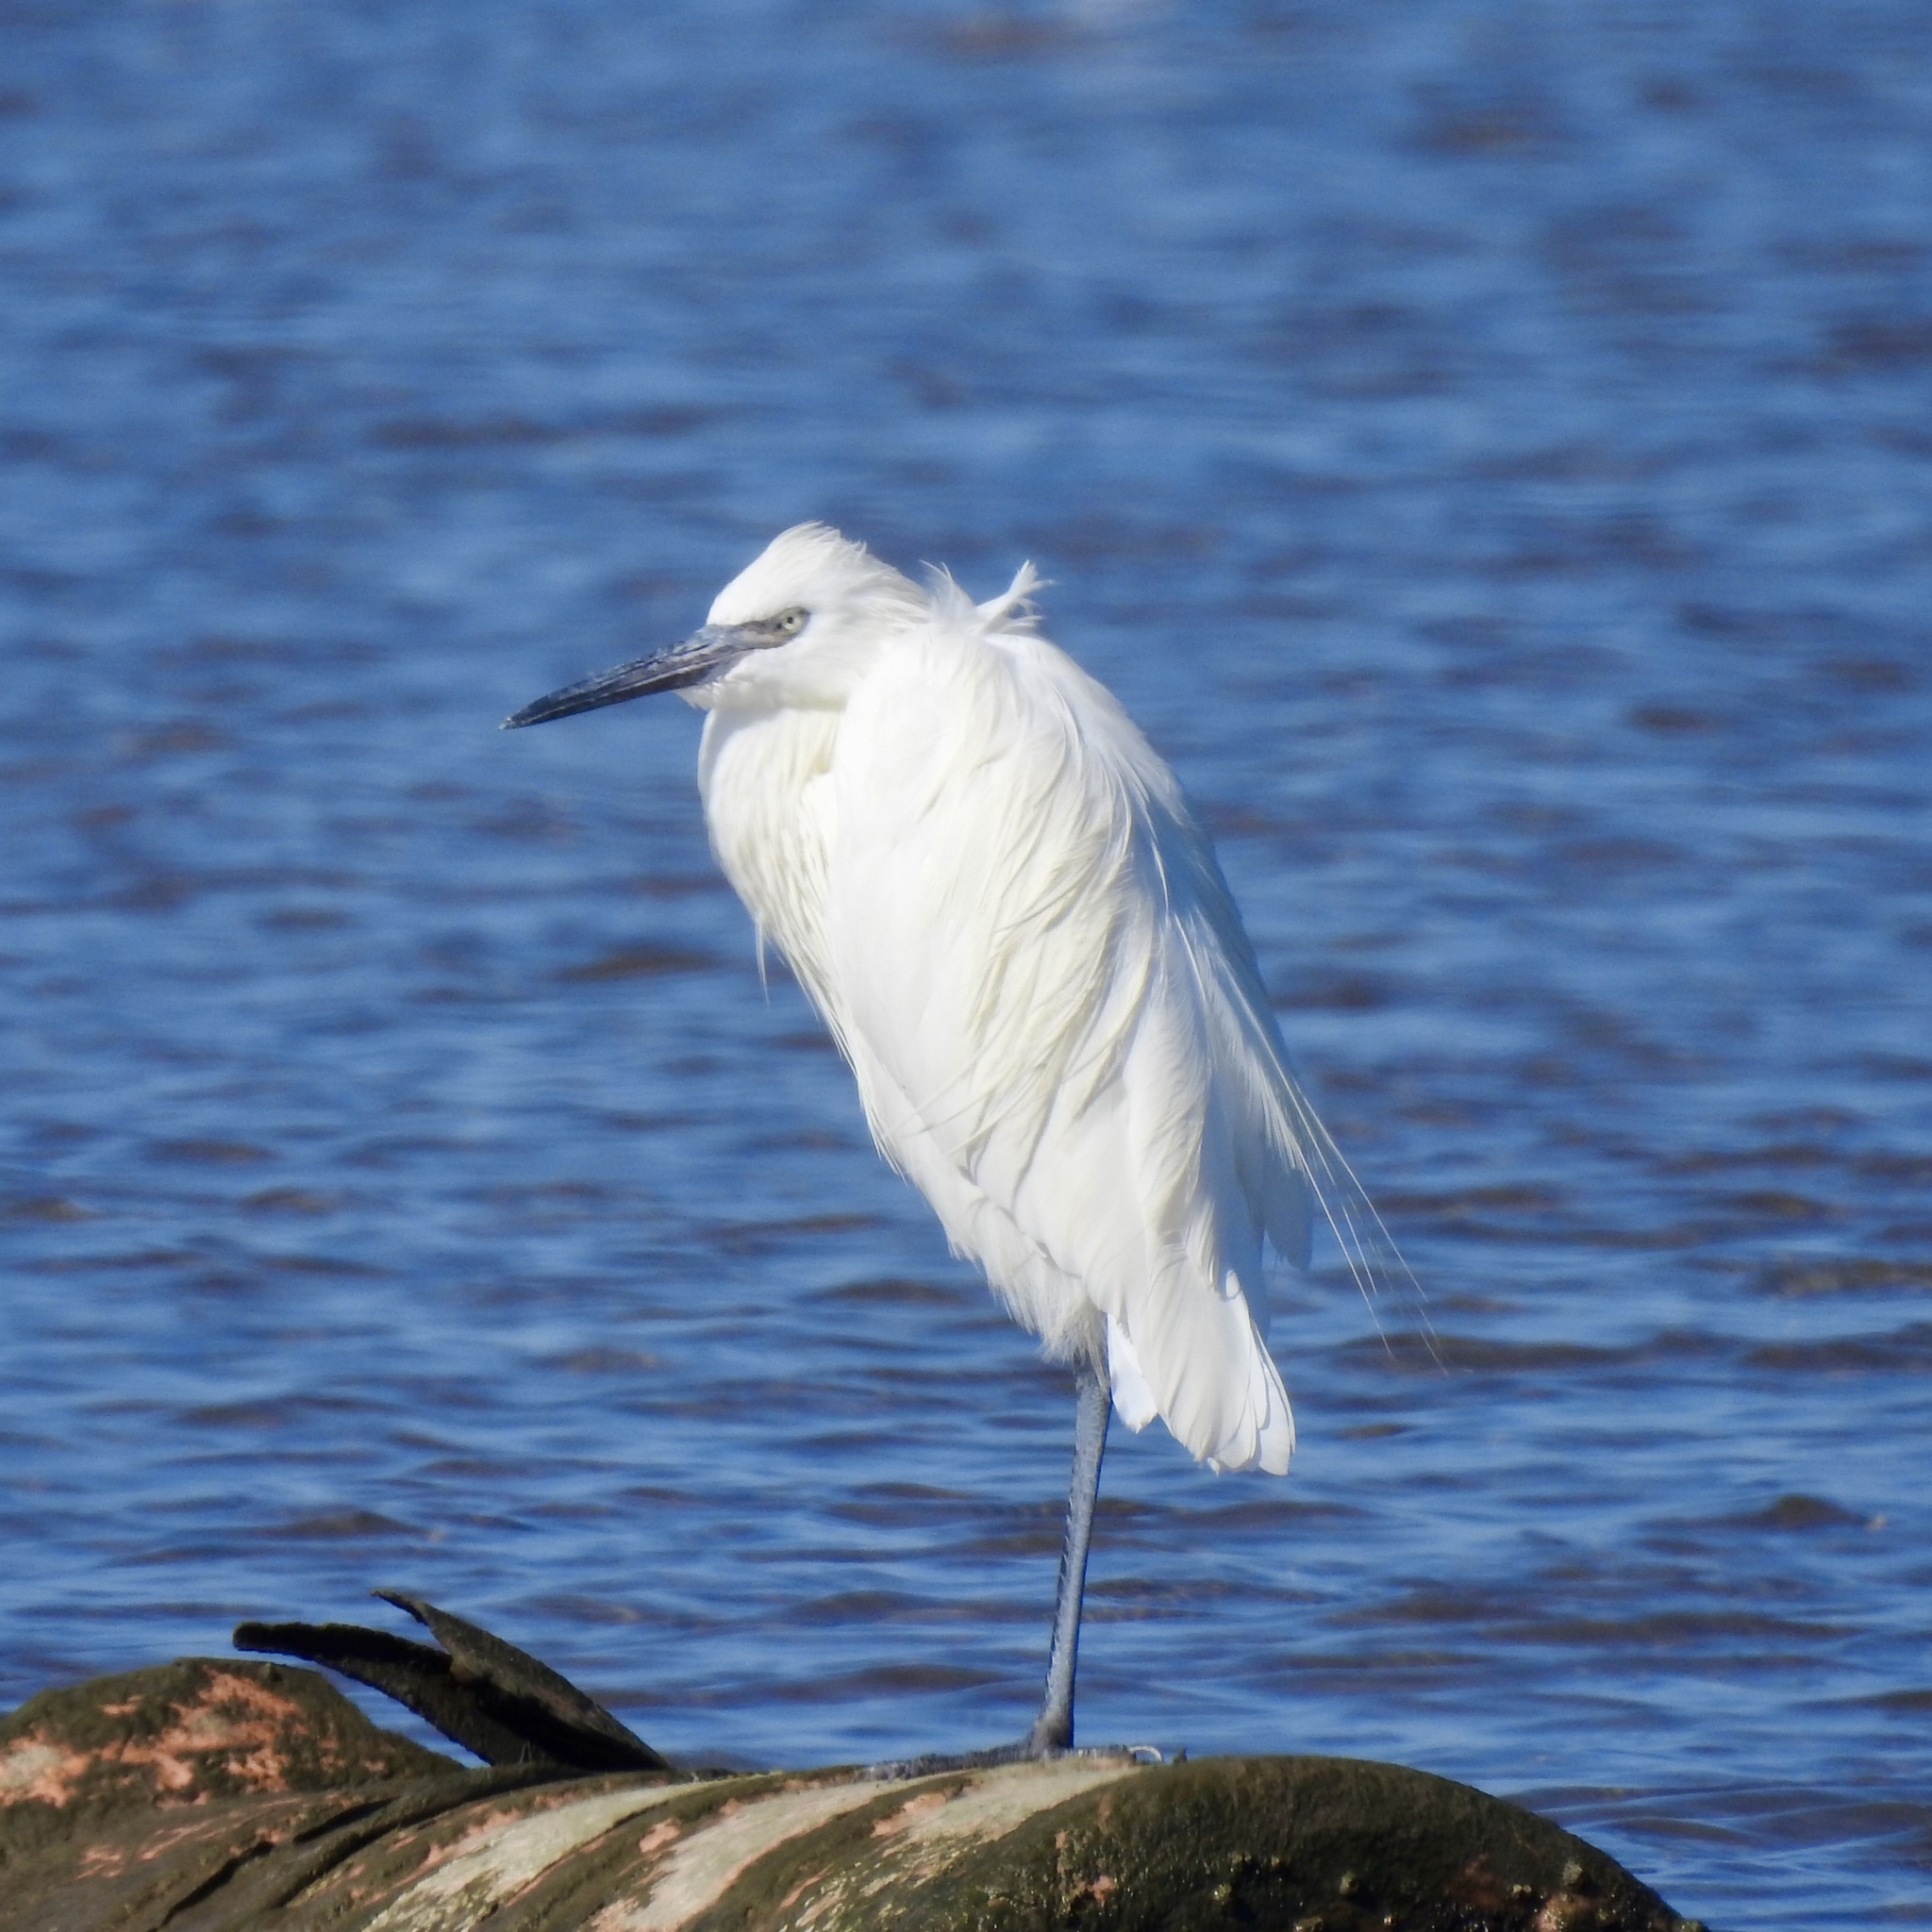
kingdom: Animalia
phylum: Chordata
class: Aves
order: Pelecaniformes
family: Ardeidae
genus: Egretta
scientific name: Egretta rufescens
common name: Reddish egret
